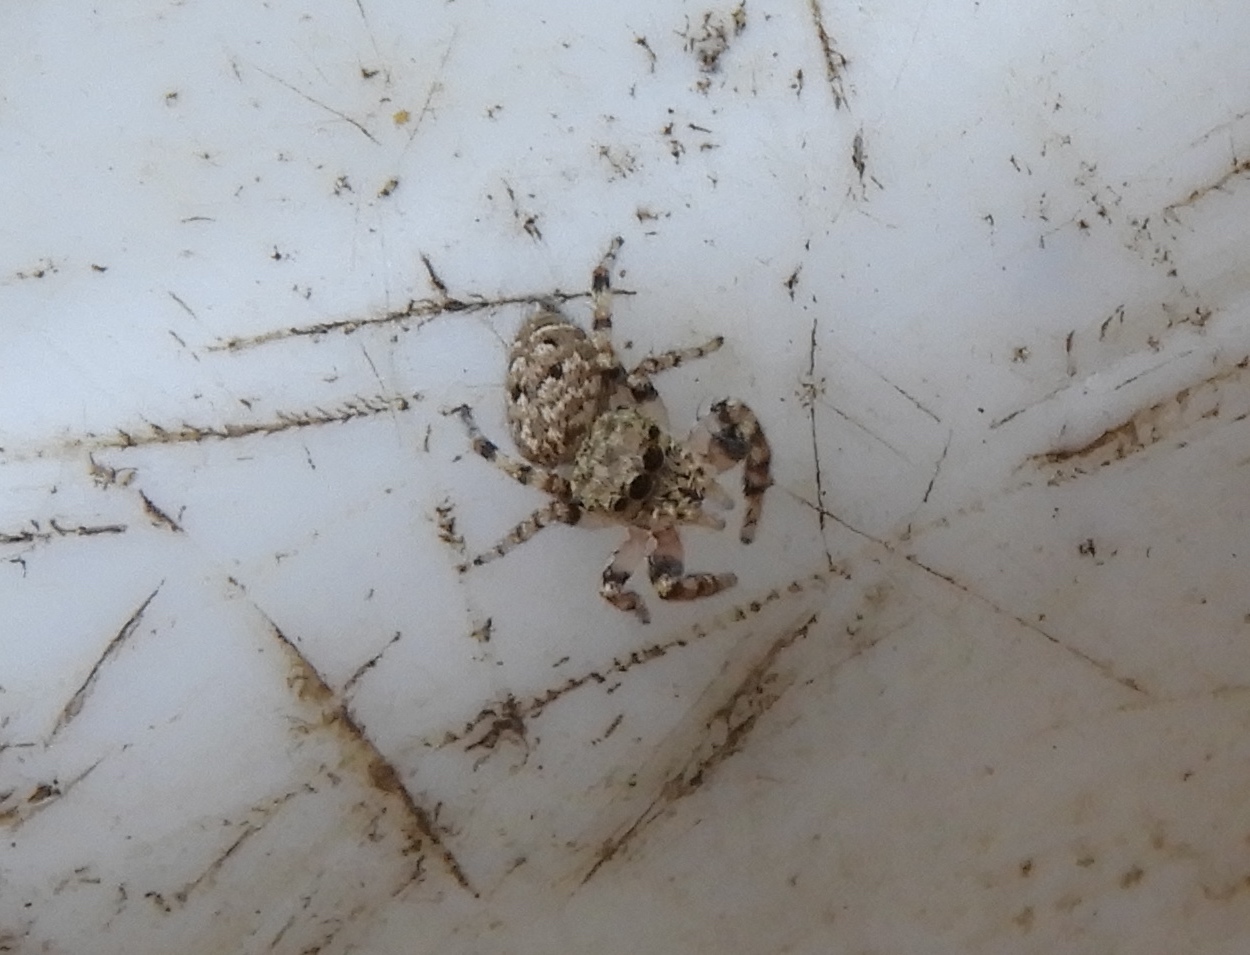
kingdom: Animalia
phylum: Arthropoda
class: Arachnida
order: Araneae
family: Salticidae
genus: Pelegrina
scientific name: Pelegrina
